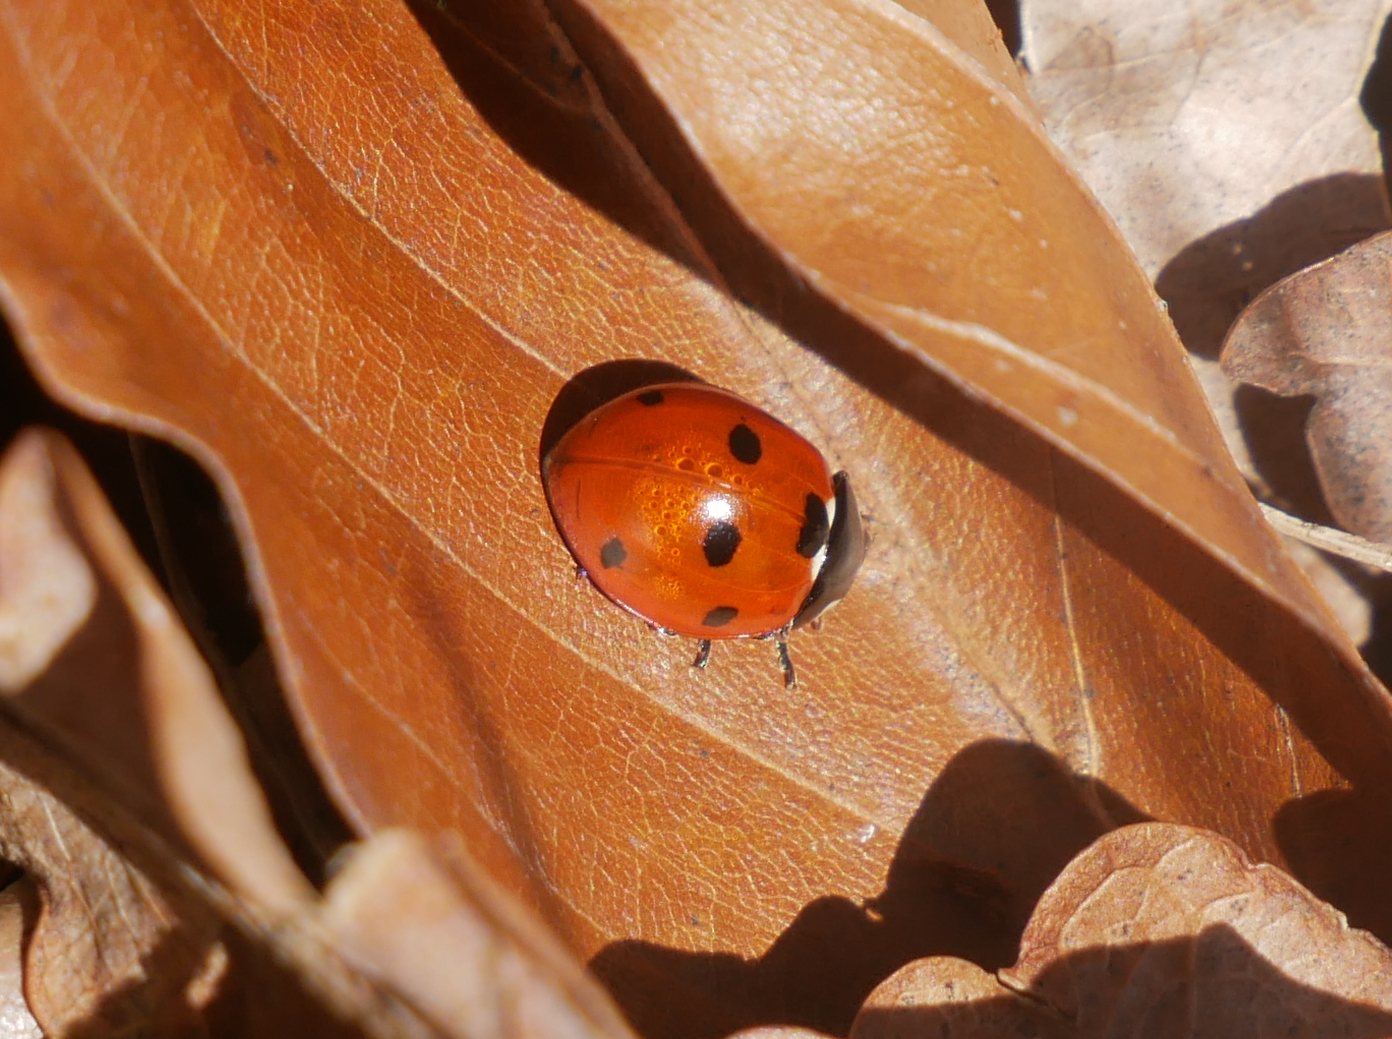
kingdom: Animalia
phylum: Arthropoda
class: Insecta
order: Coleoptera
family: Coccinellidae
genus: Coccinella
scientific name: Coccinella septempunctata
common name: Sevenspotted lady beetle
